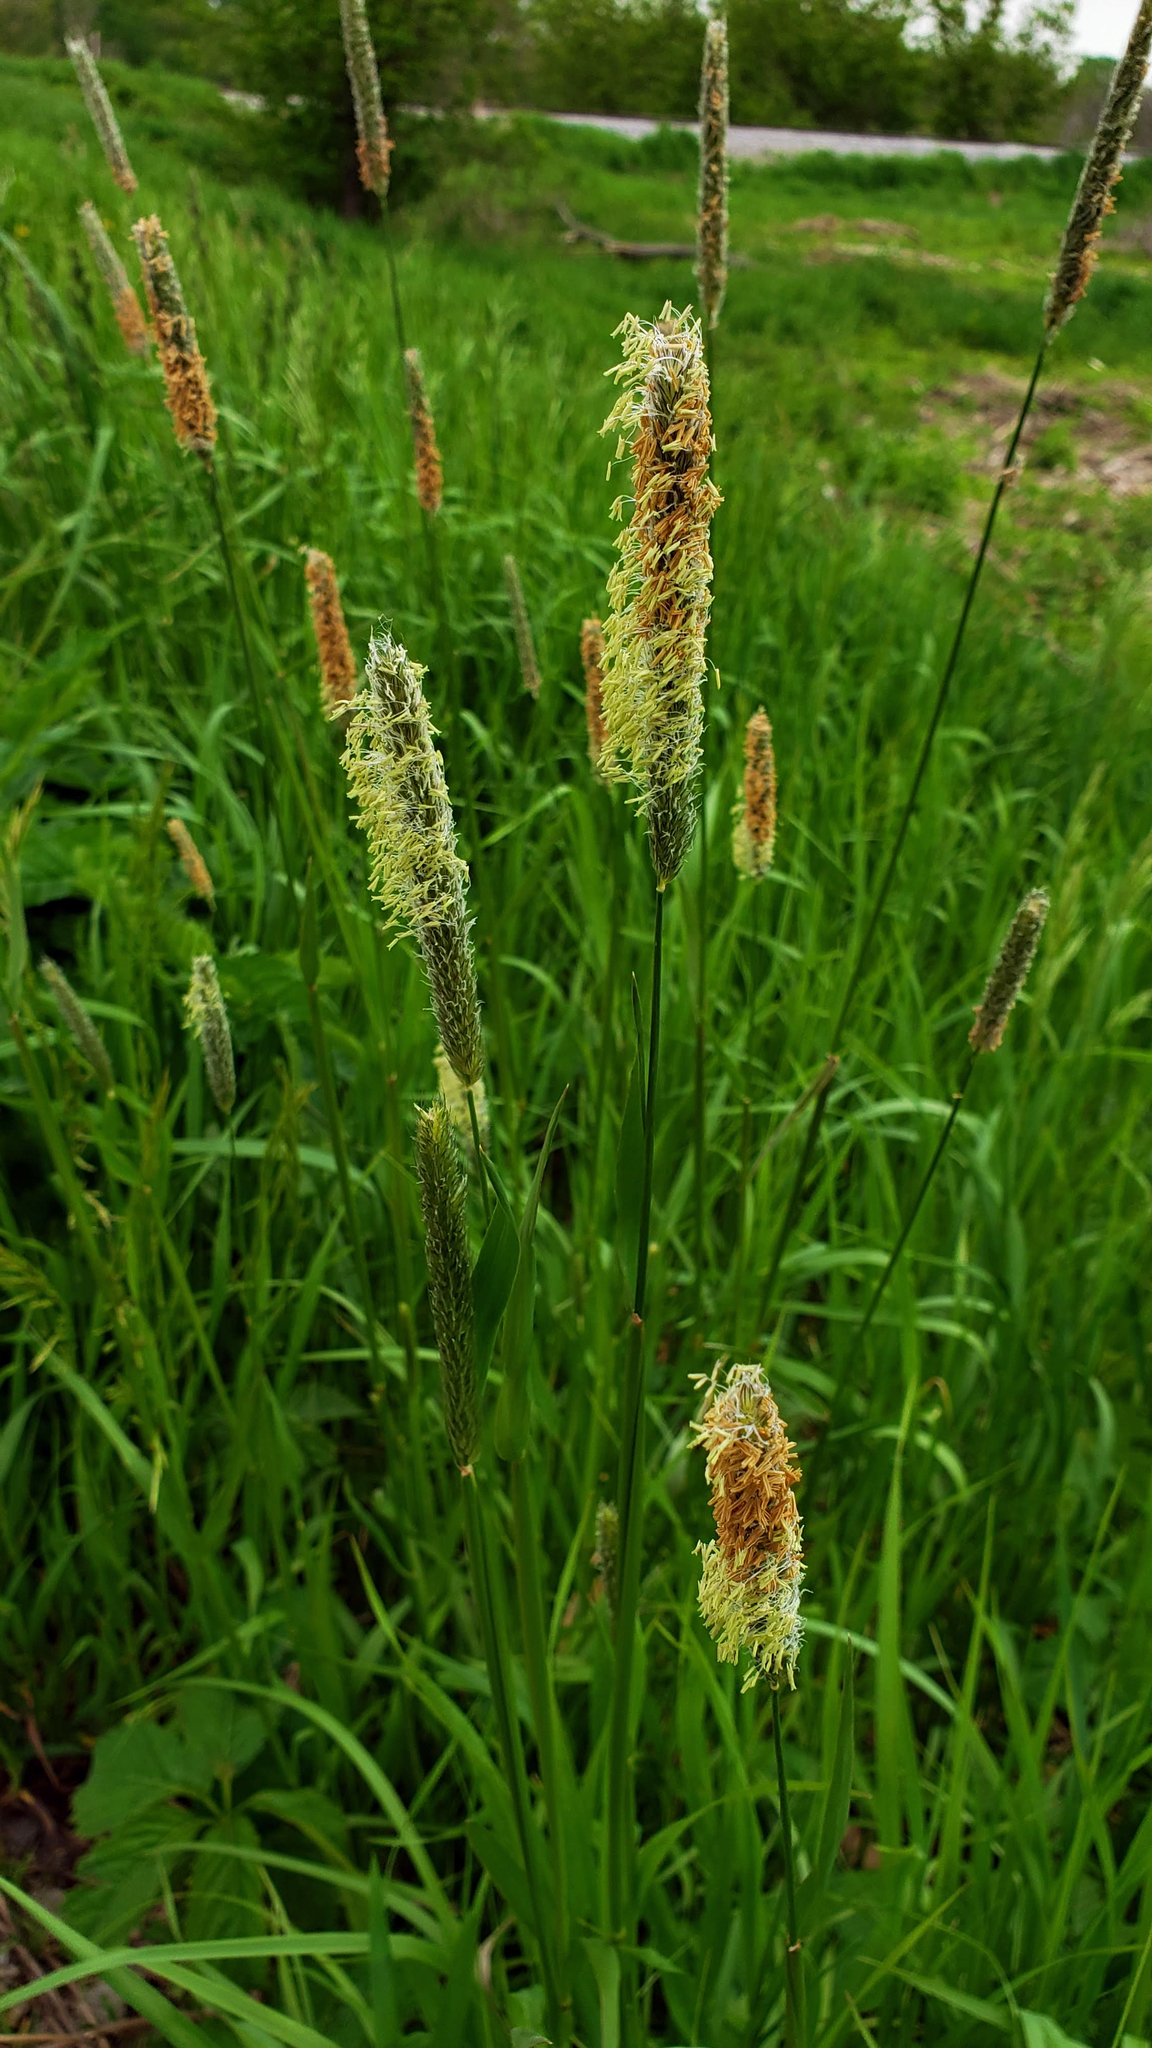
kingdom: Plantae
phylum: Tracheophyta
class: Liliopsida
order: Poales
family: Poaceae
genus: Alopecurus
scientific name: Alopecurus pratensis
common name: Meadow foxtail
